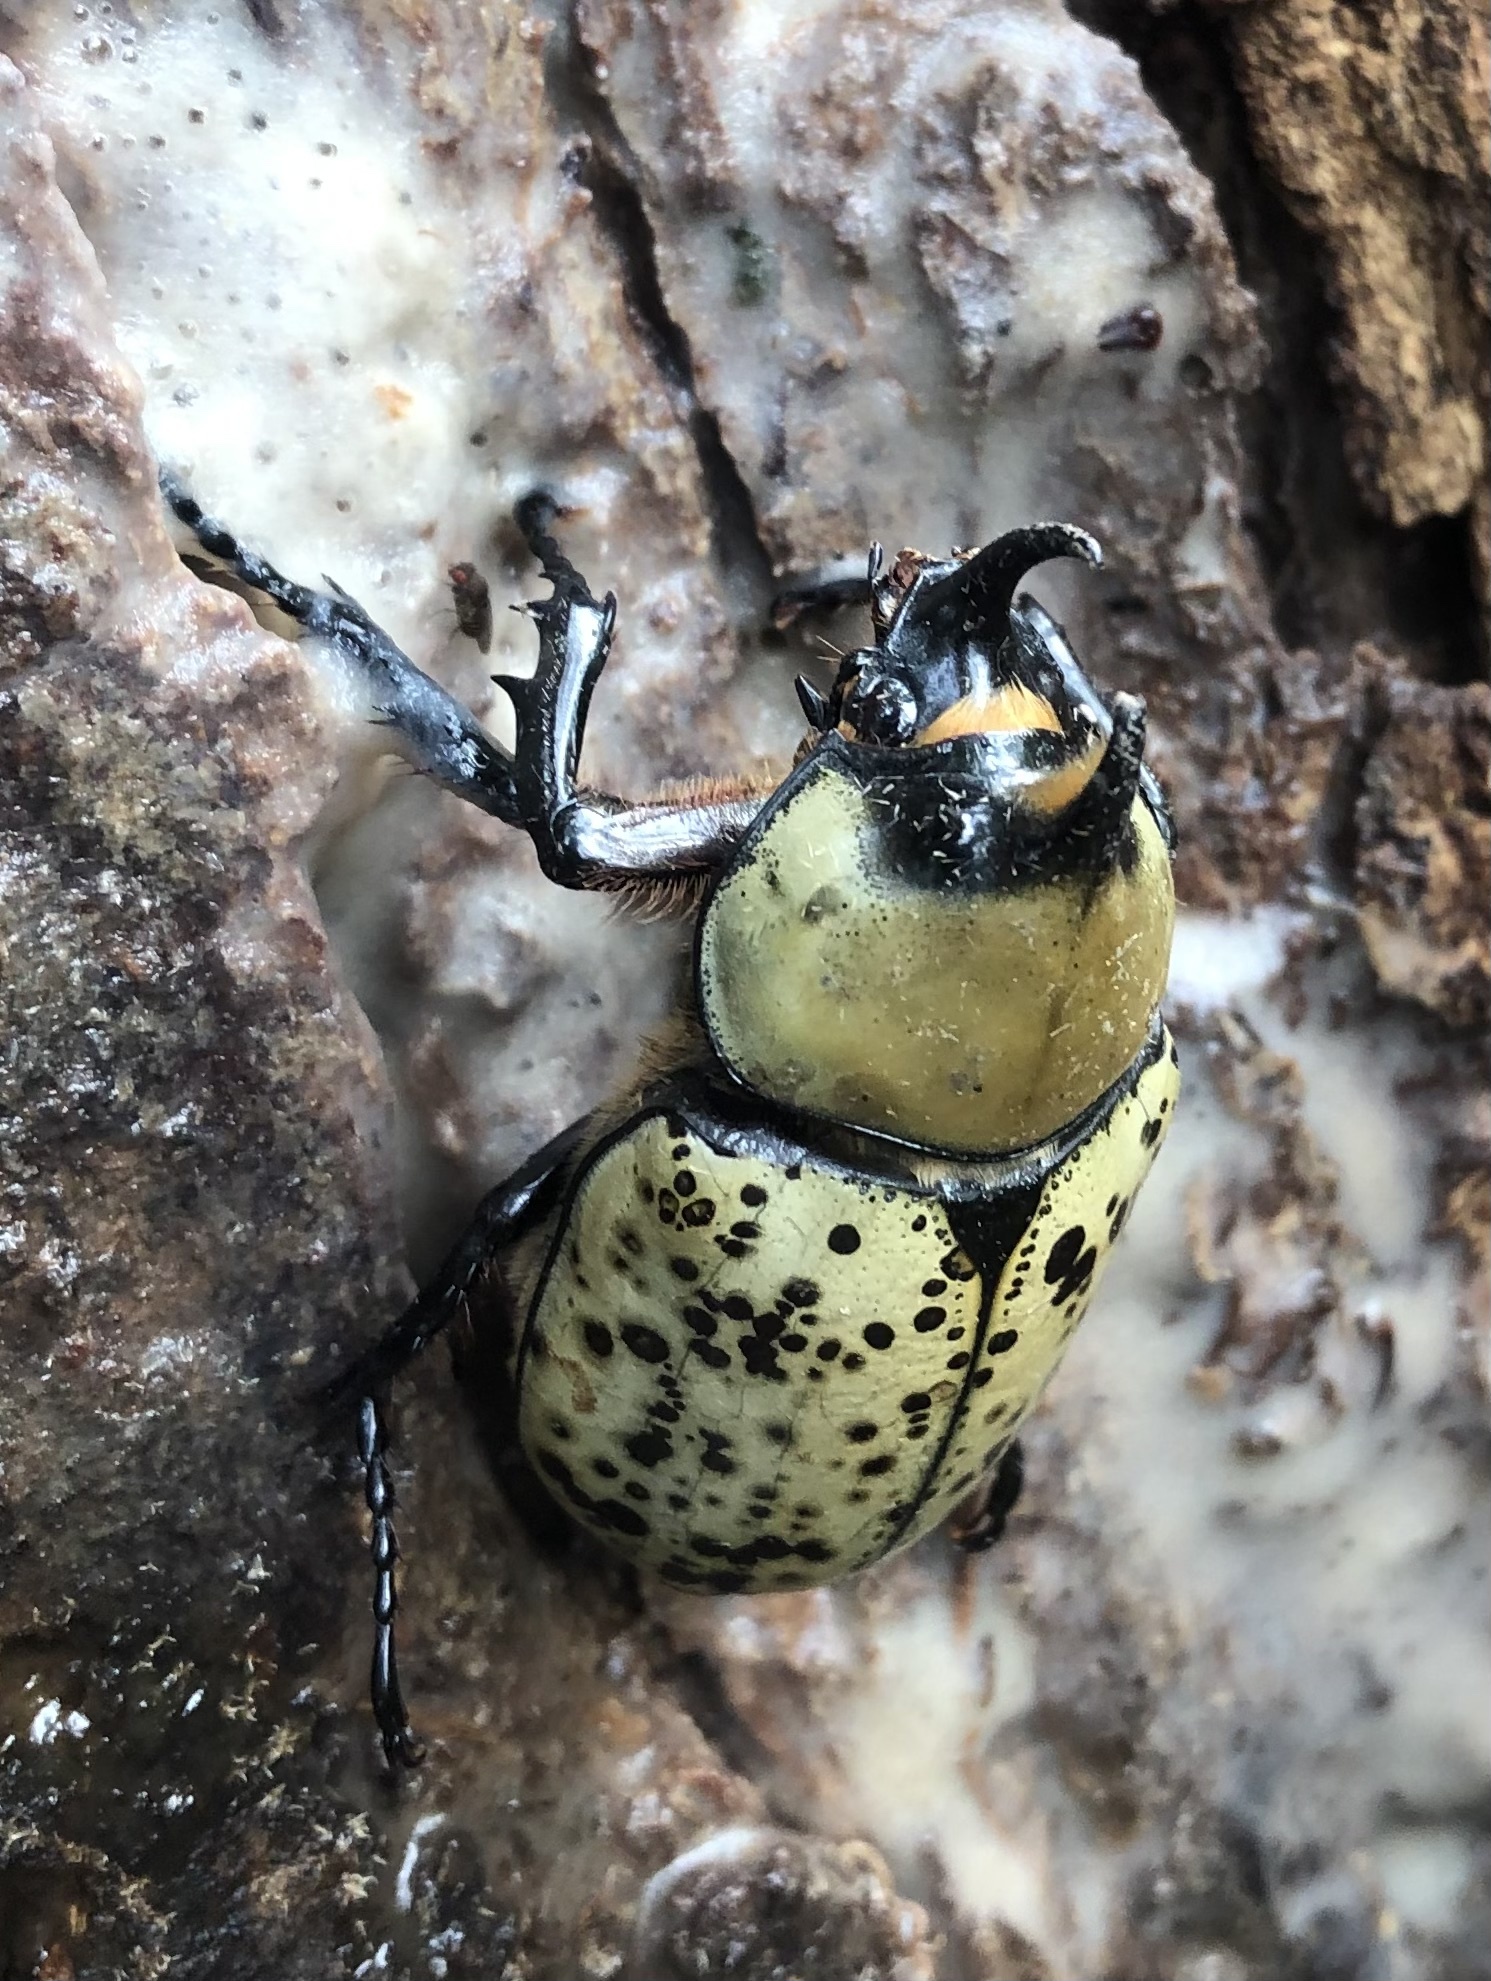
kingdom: Animalia
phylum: Arthropoda
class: Insecta
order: Coleoptera
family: Scarabaeidae
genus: Dynastes
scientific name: Dynastes tityus
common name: Eastern hercules beetle
